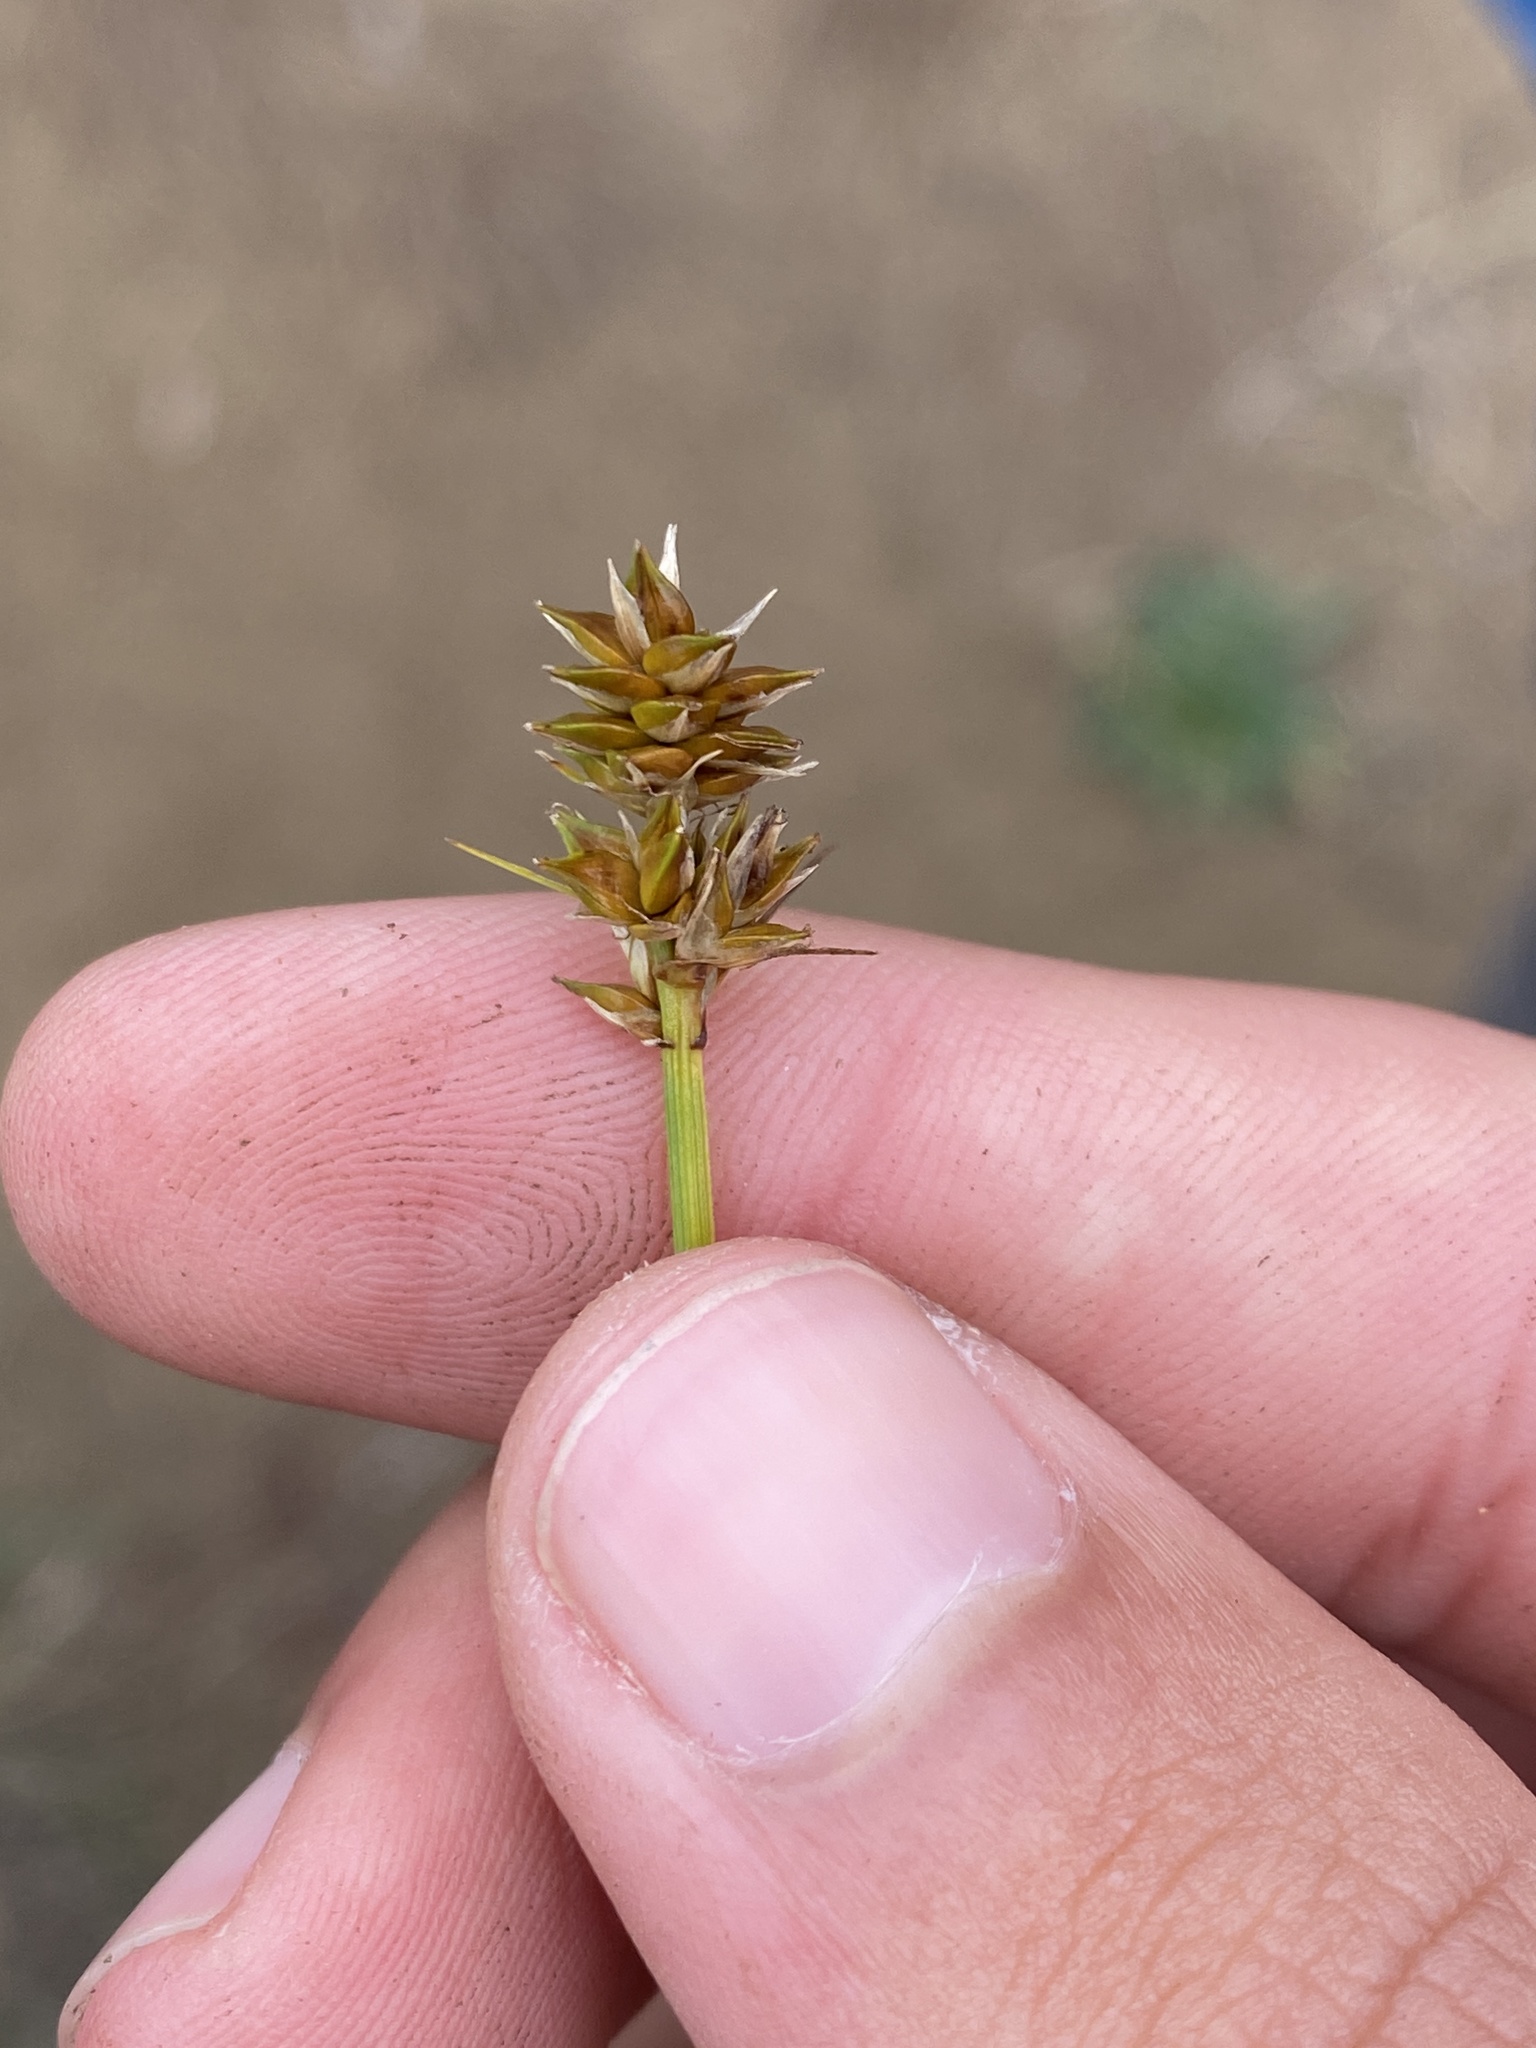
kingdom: Plantae
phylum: Tracheophyta
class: Liliopsida
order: Poales
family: Cyperaceae
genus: Carex
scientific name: Carex muehlenbergii
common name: Muhlenberg's bracted sedge
